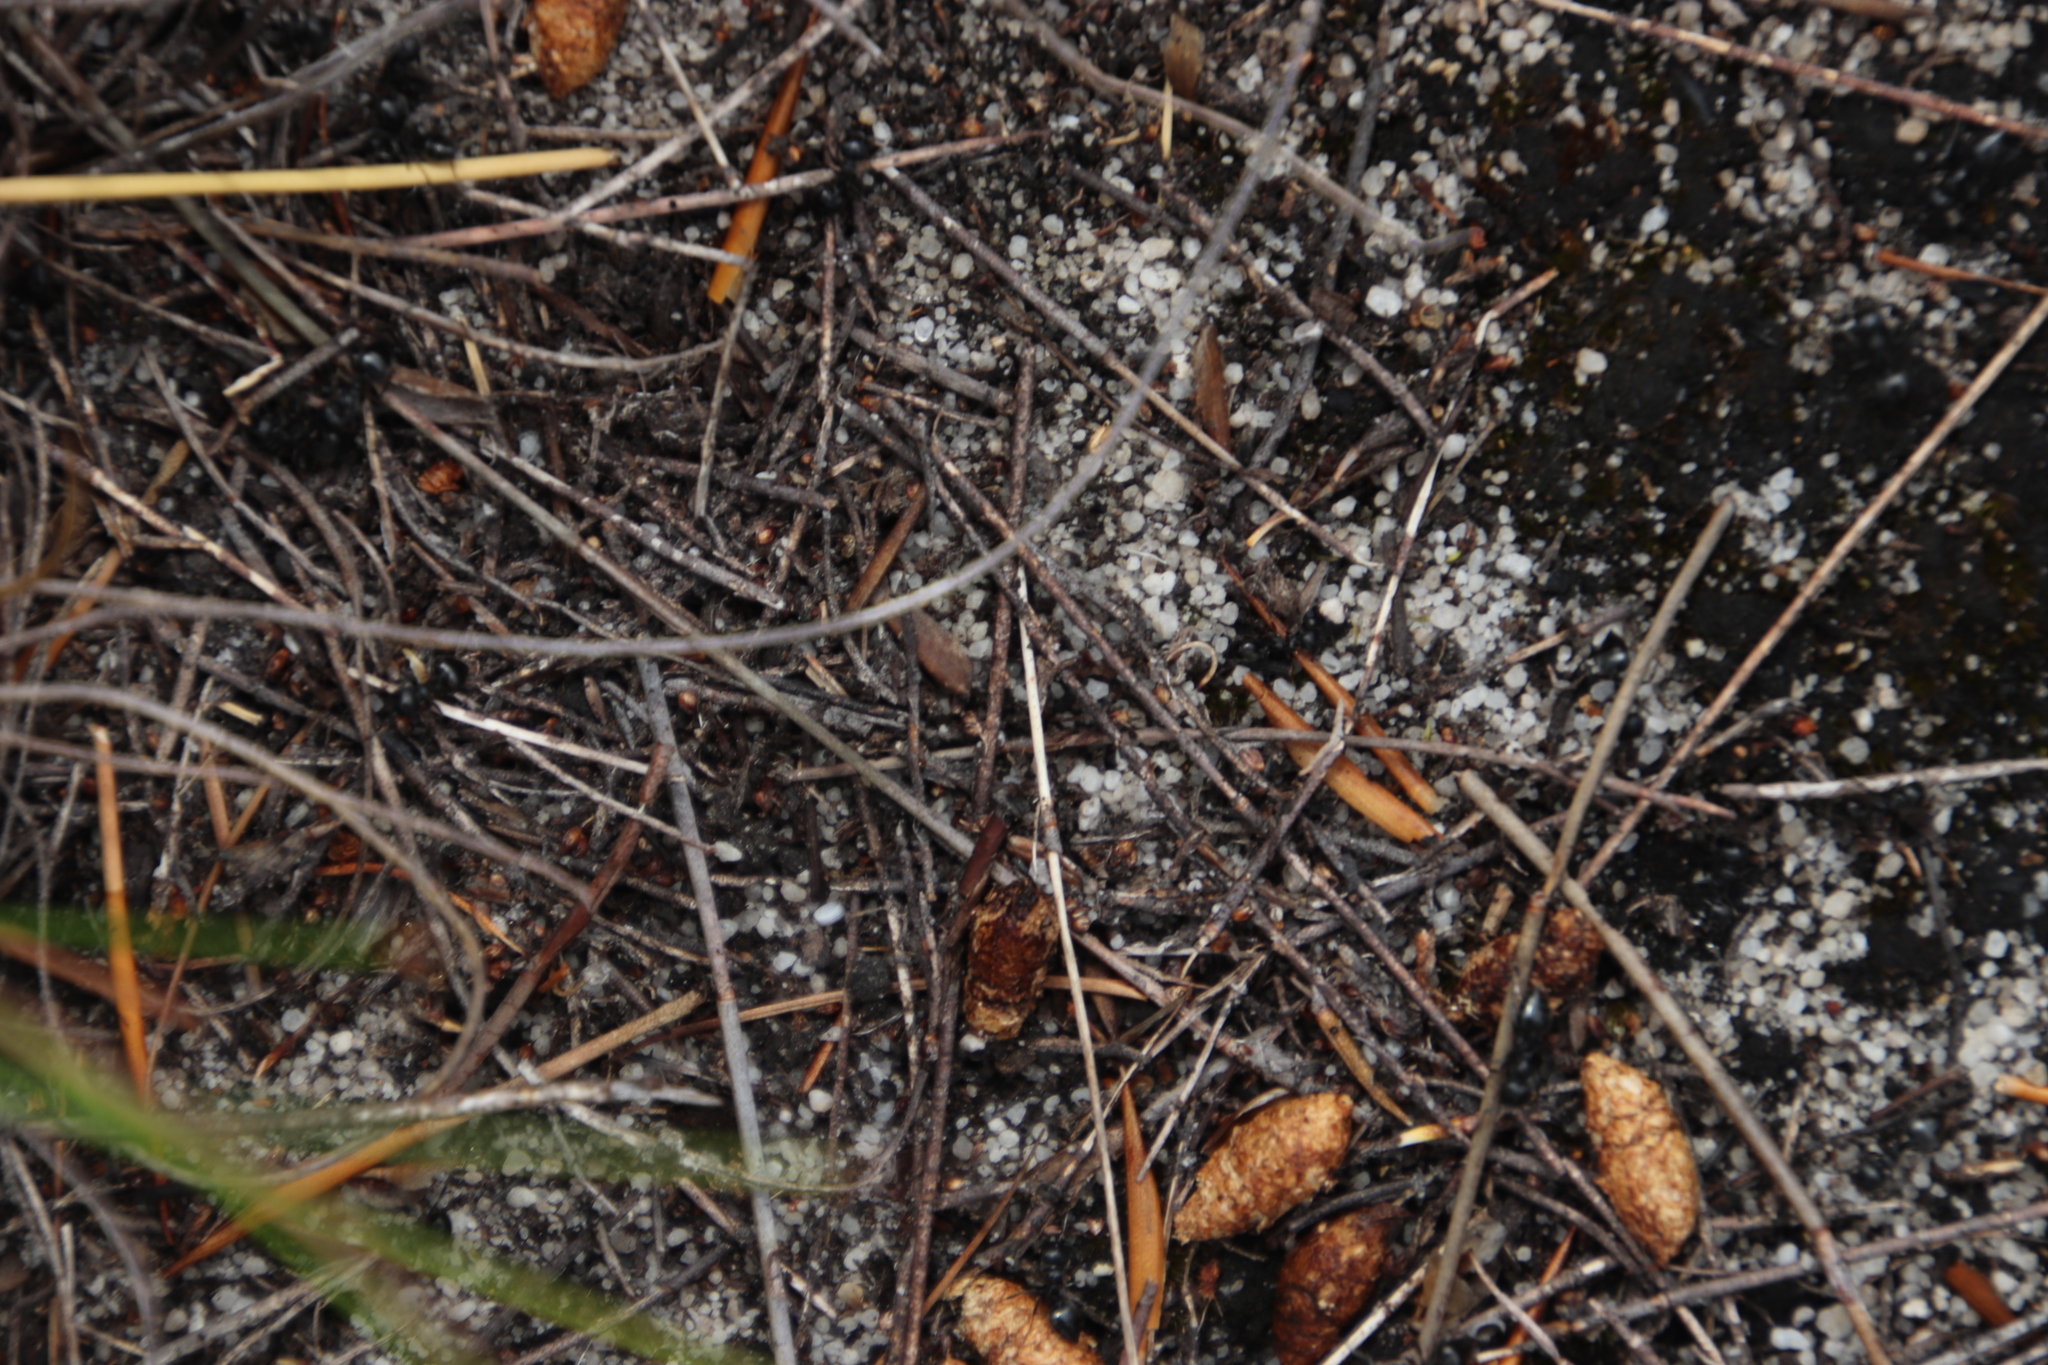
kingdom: Animalia
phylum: Arthropoda
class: Insecta
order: Hymenoptera
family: Formicidae
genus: Crematogaster
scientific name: Crematogaster peringueyi
